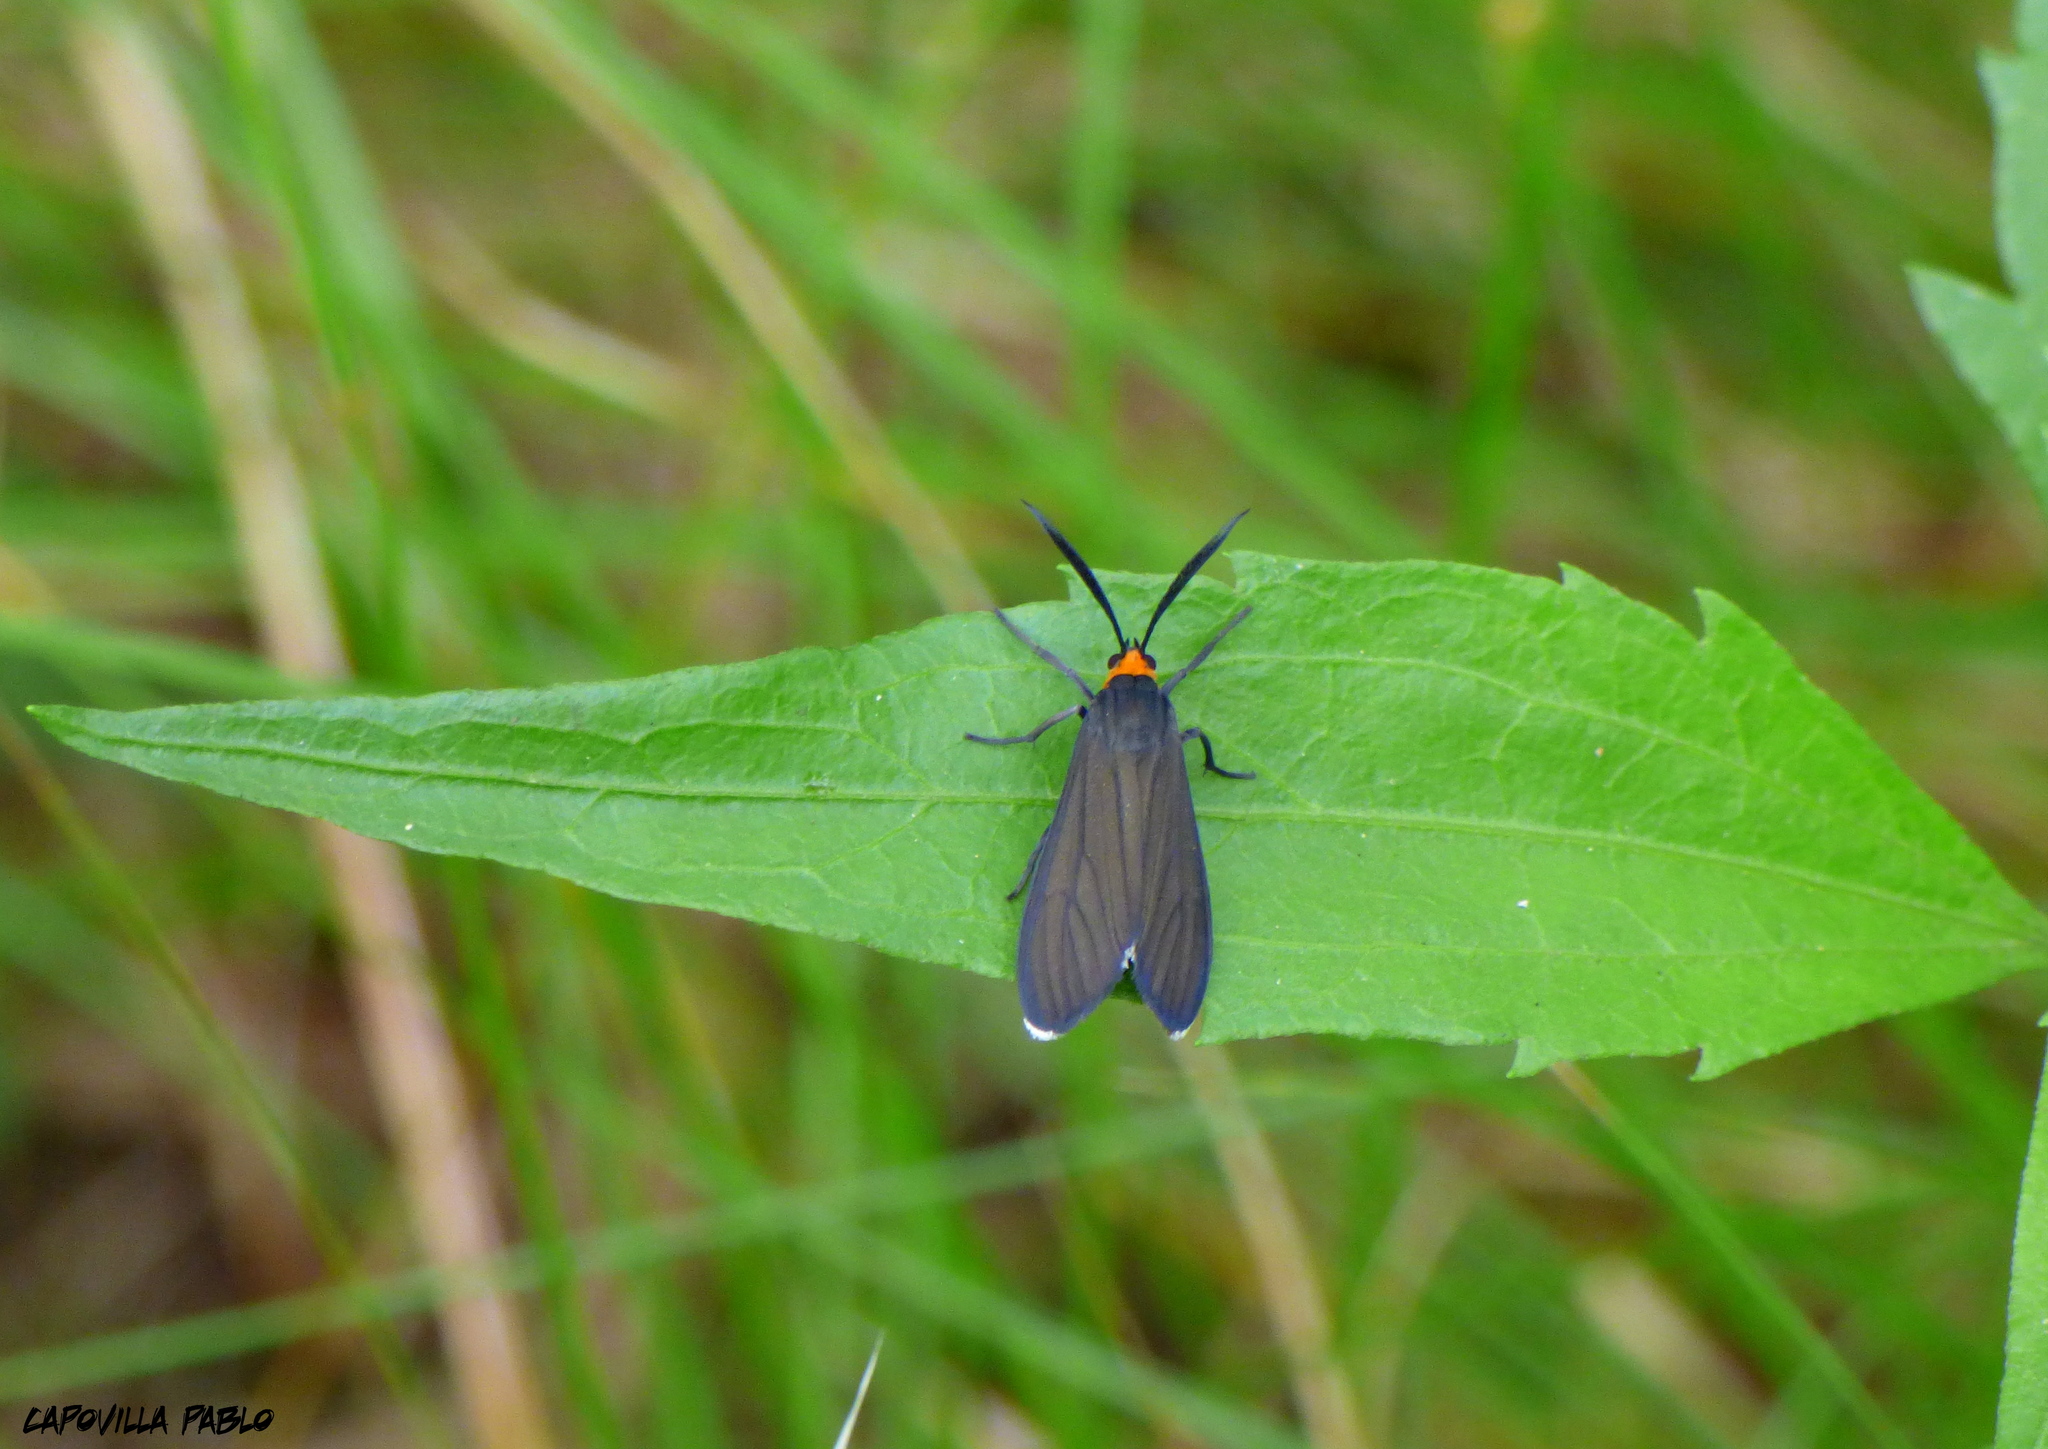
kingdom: Animalia
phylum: Arthropoda
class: Insecta
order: Lepidoptera
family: Erebidae
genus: Ctenucha
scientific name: Ctenucha rubriceps
